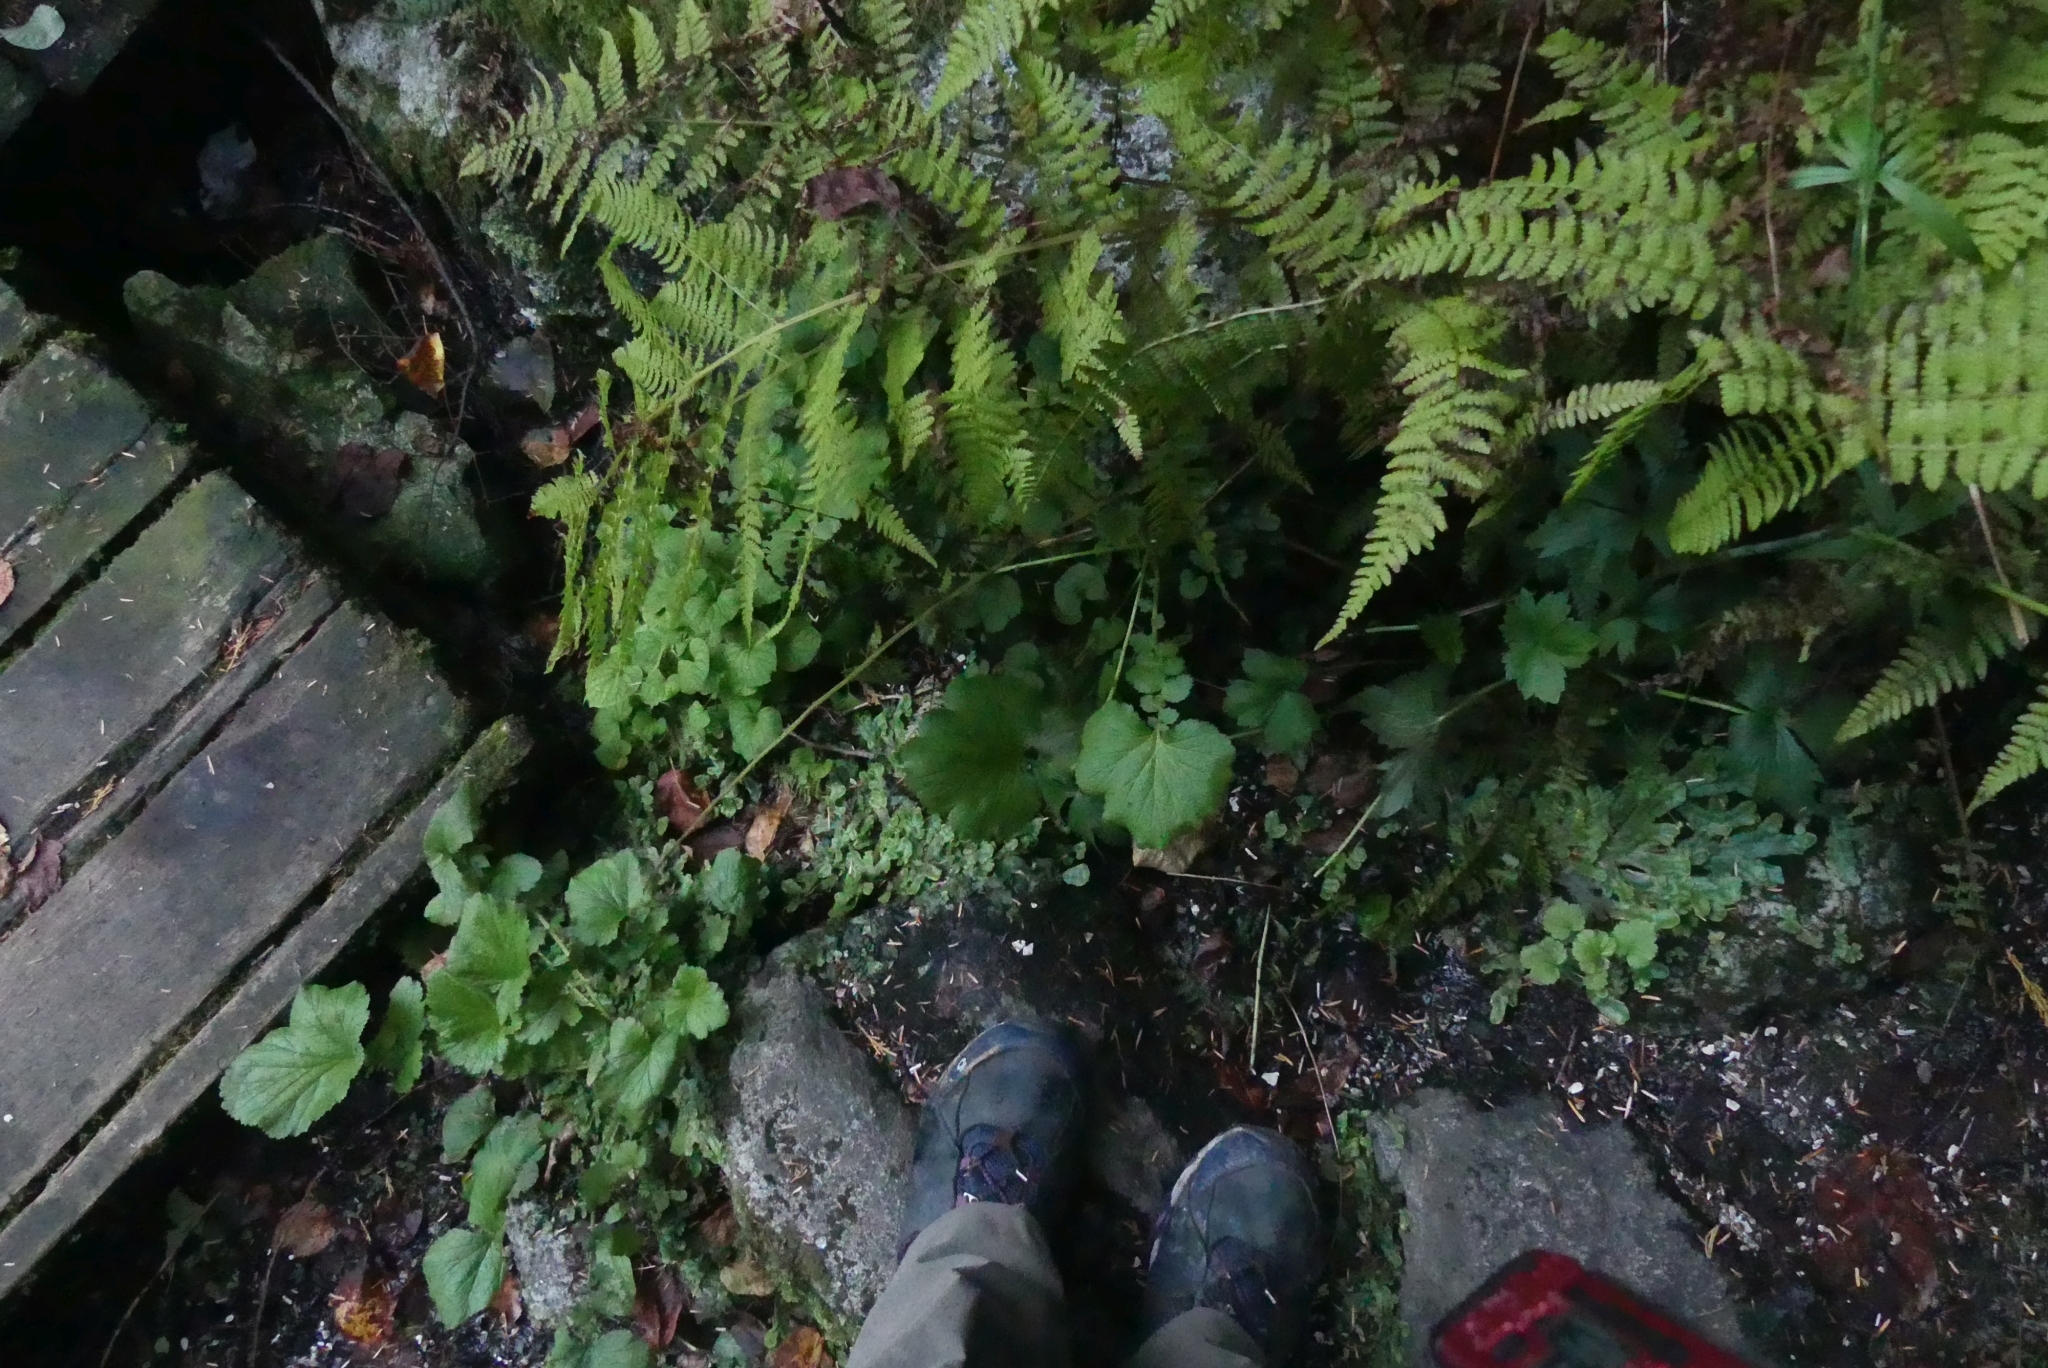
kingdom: Plantae
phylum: Tracheophyta
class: Magnoliopsida
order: Rosales
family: Rosaceae
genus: Geum
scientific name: Geum macrophyllum
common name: Large-leaved avens
